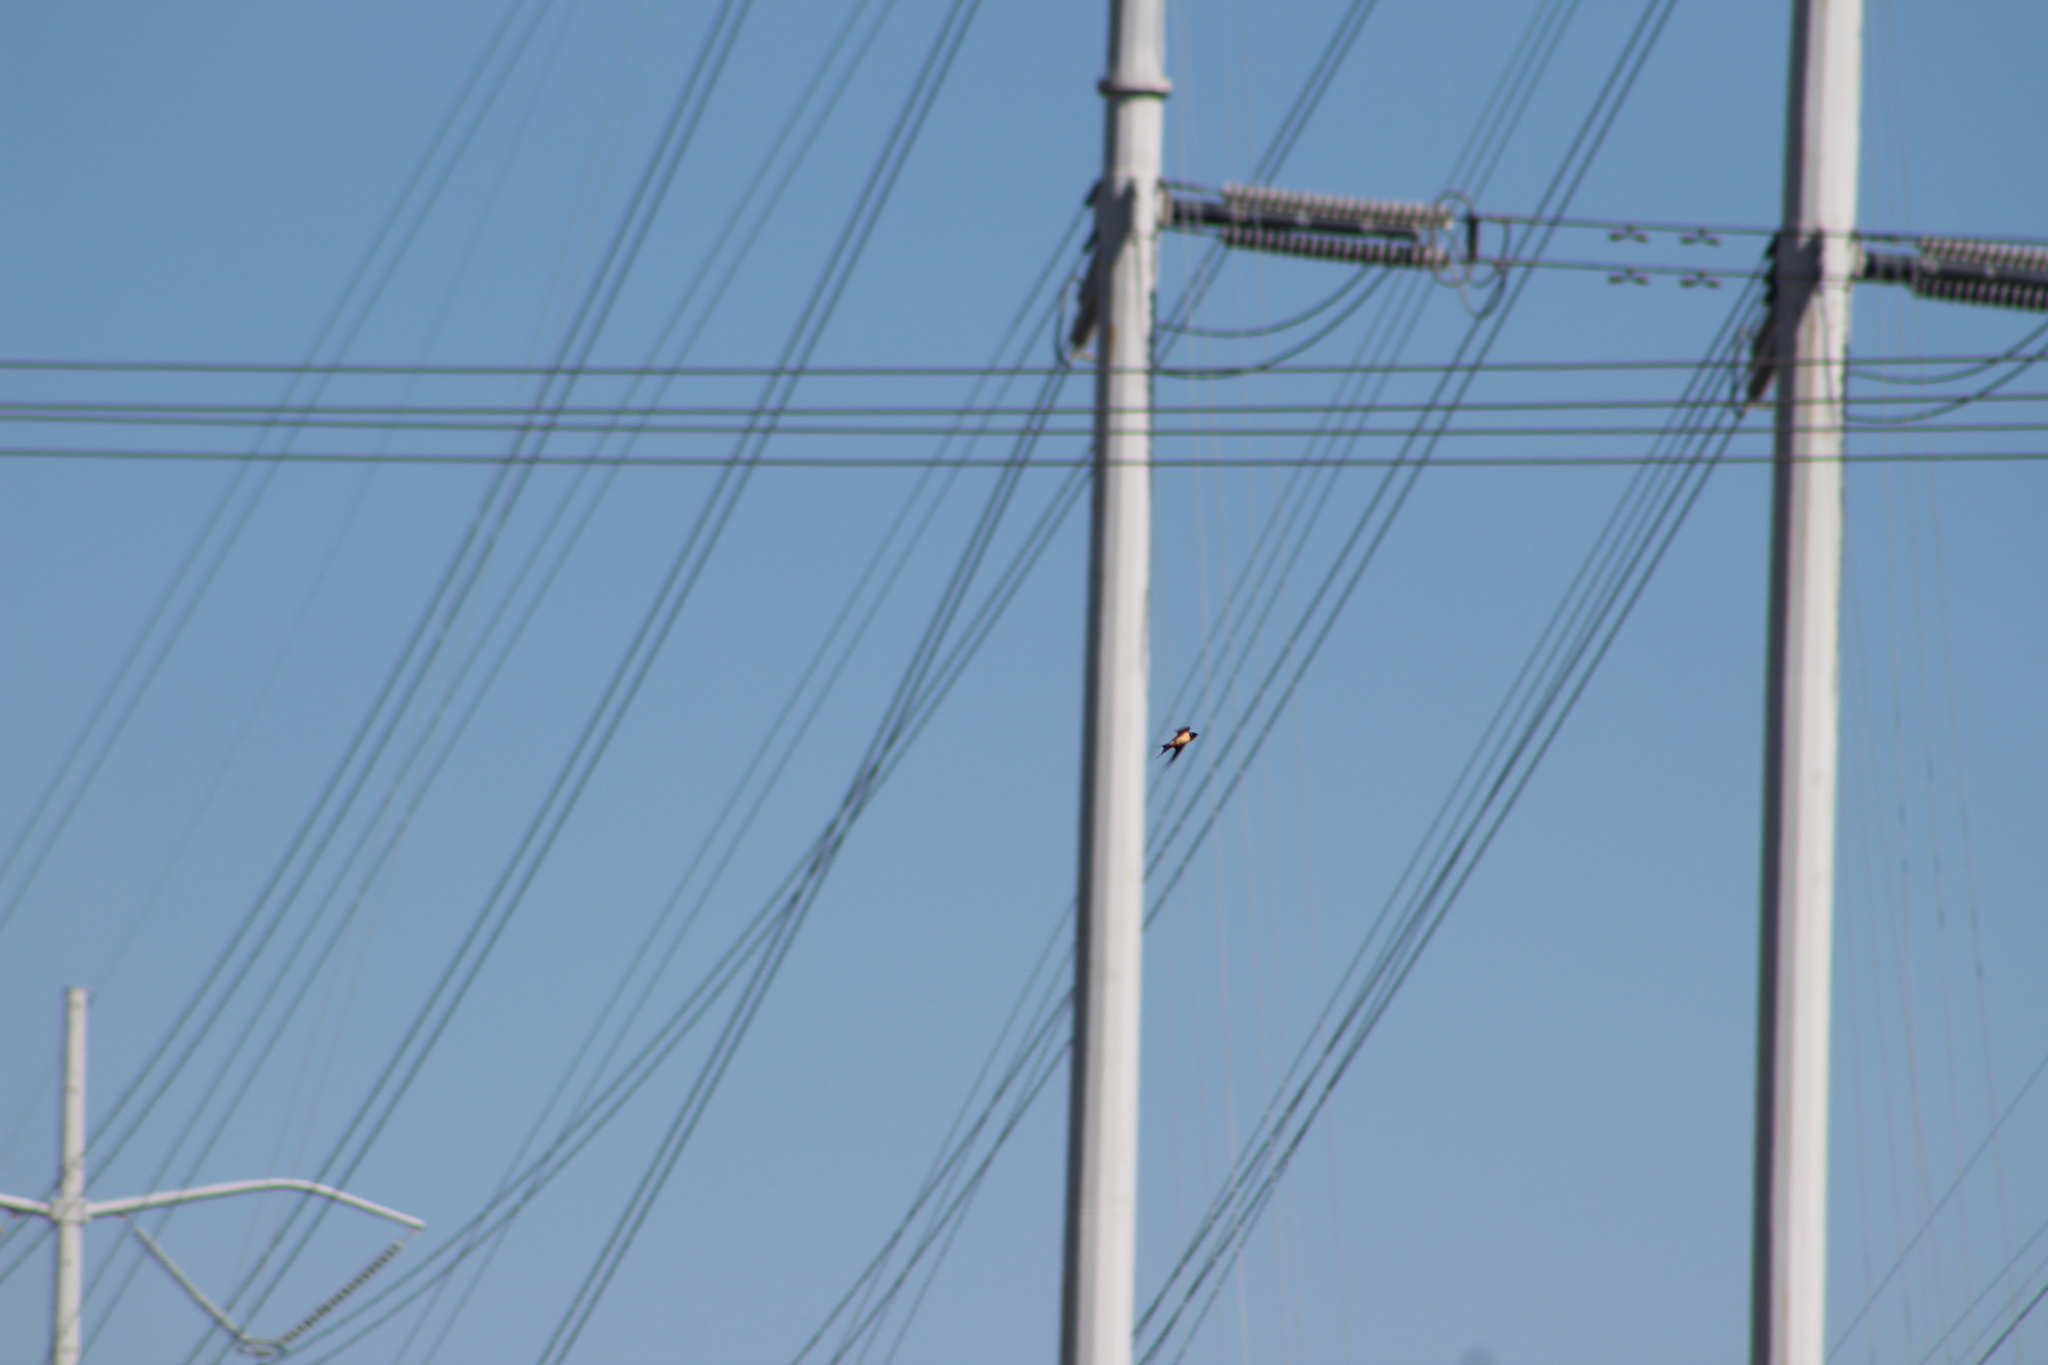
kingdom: Animalia
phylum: Chordata
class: Aves
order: Passeriformes
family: Hirundinidae
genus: Hirundo
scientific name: Hirundo rustica
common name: Barn swallow
